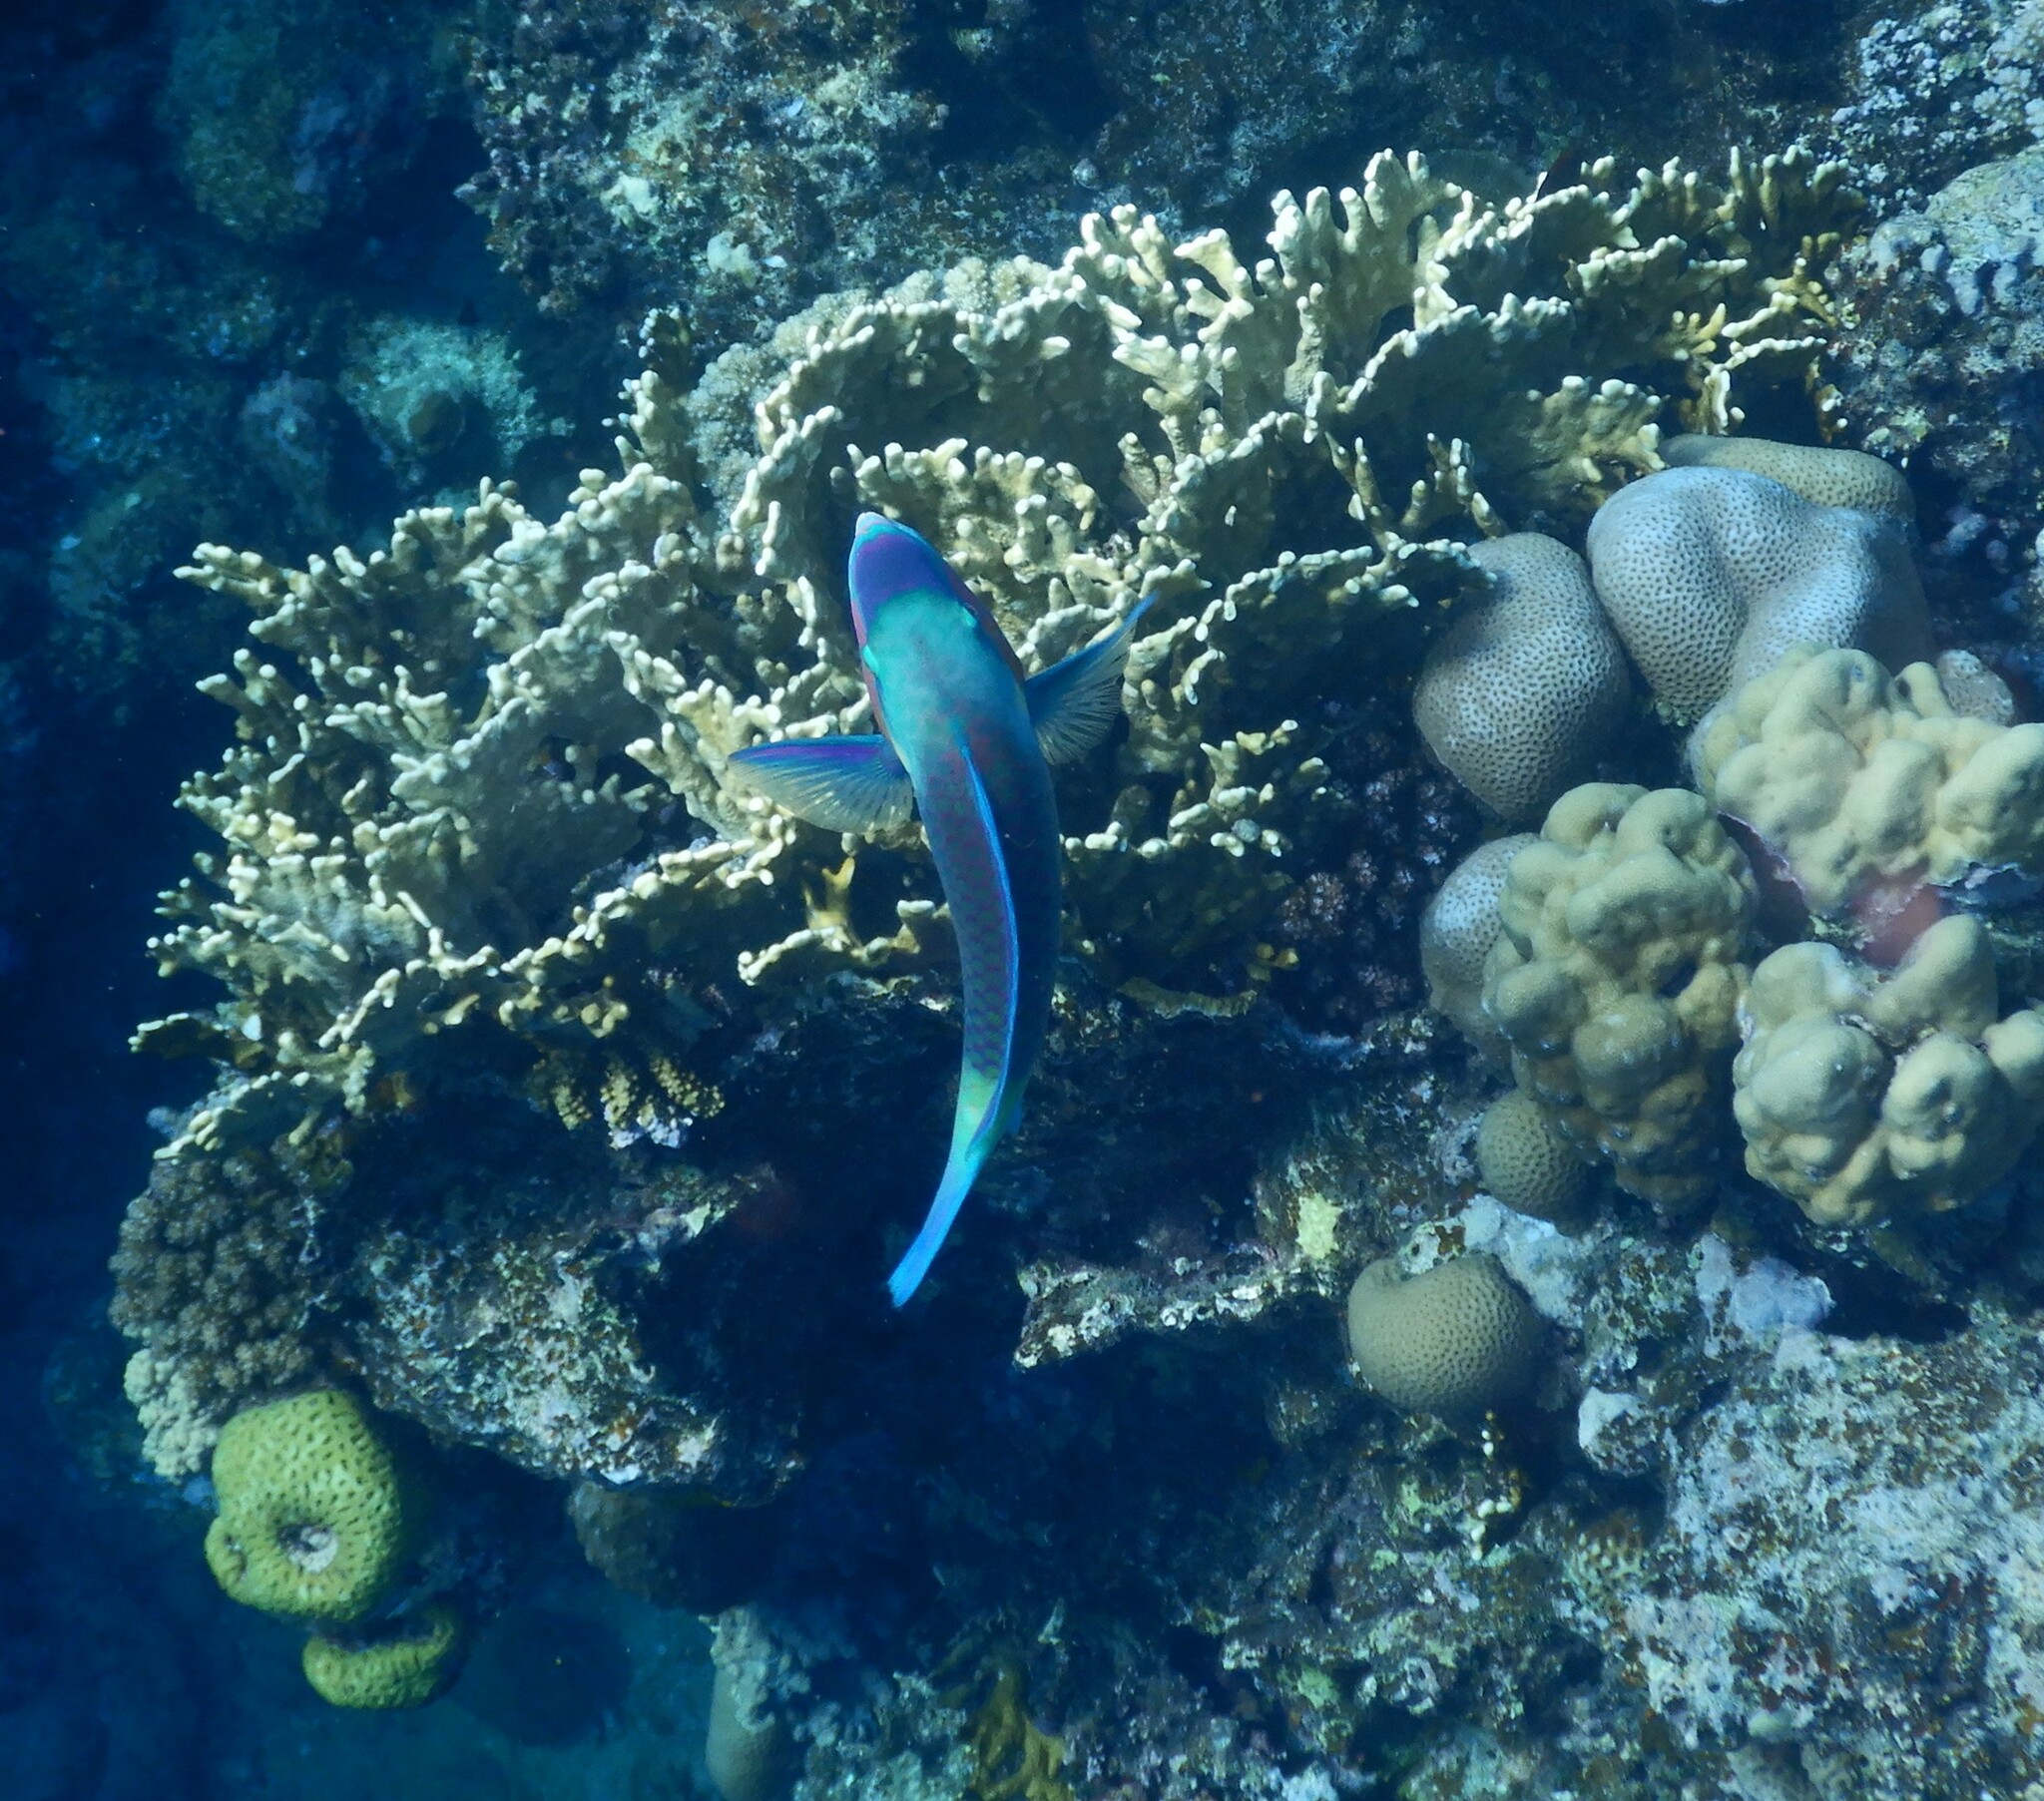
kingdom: Animalia
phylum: Chordata
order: Perciformes
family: Scaridae
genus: Chlorurus
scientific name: Chlorurus sordidus
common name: Bullethead parrotfish
